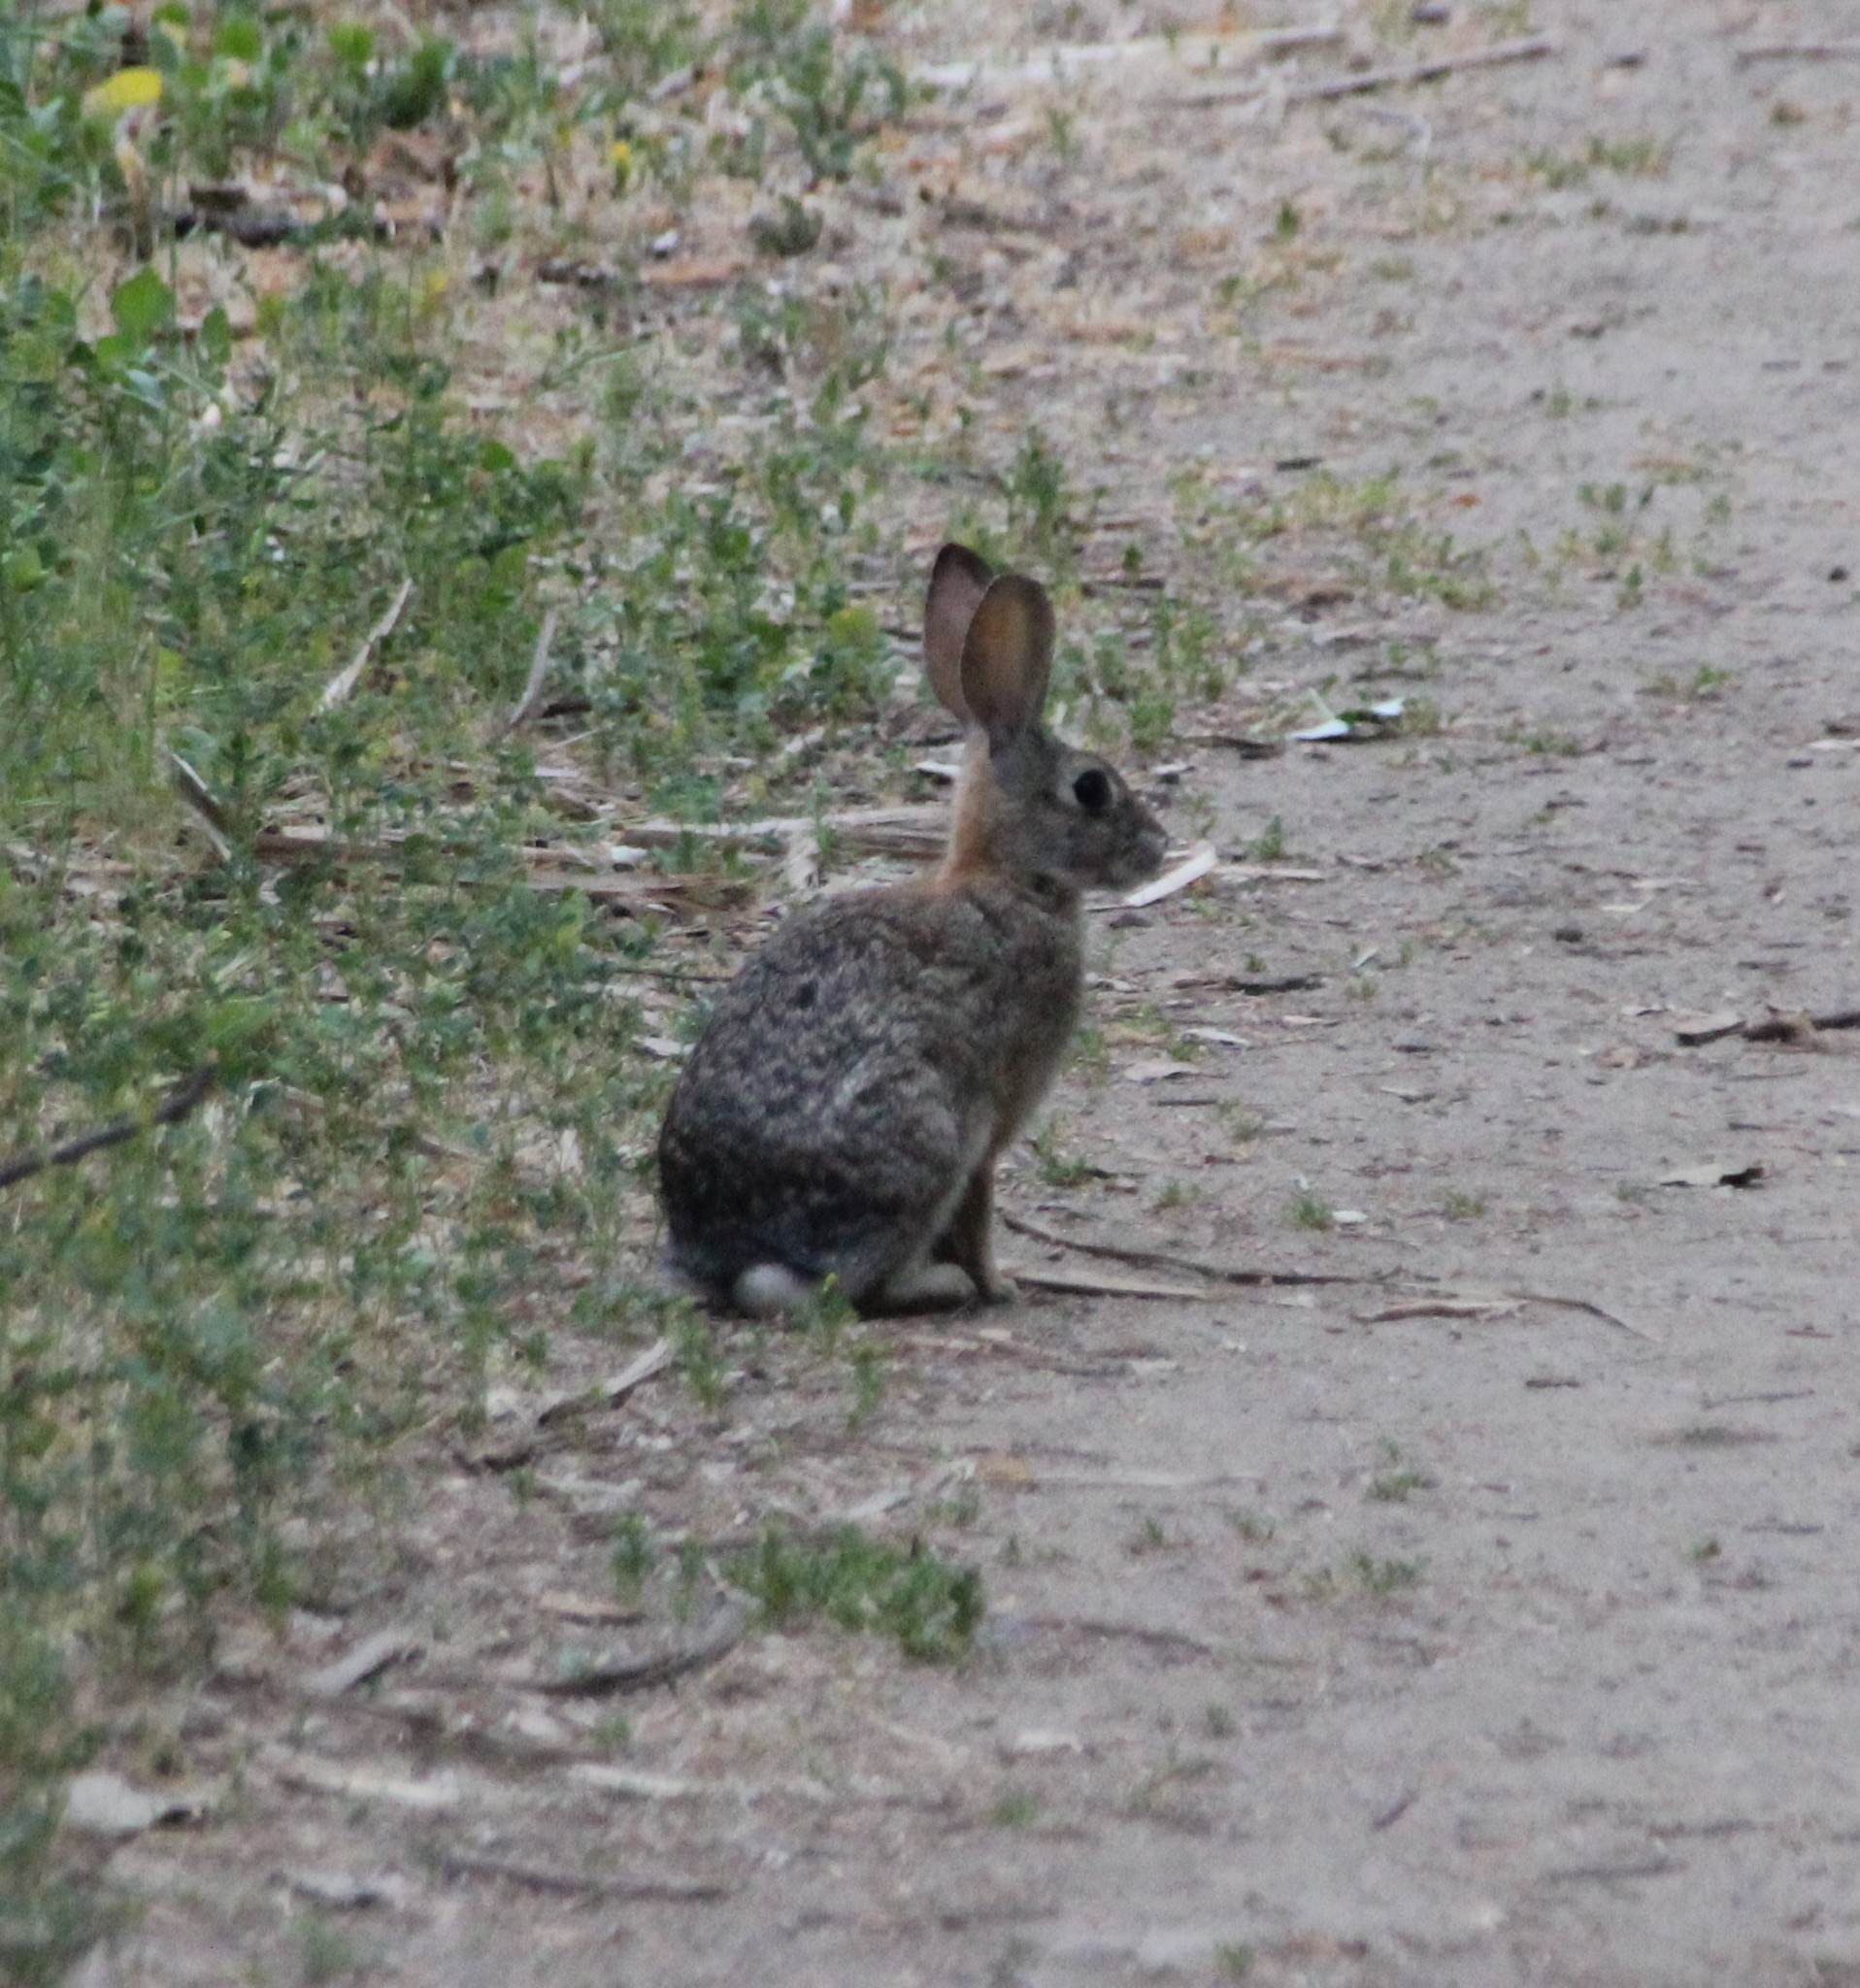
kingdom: Animalia
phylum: Chordata
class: Mammalia
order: Lagomorpha
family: Leporidae
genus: Sylvilagus
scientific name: Sylvilagus audubonii
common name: Desert cottontail
